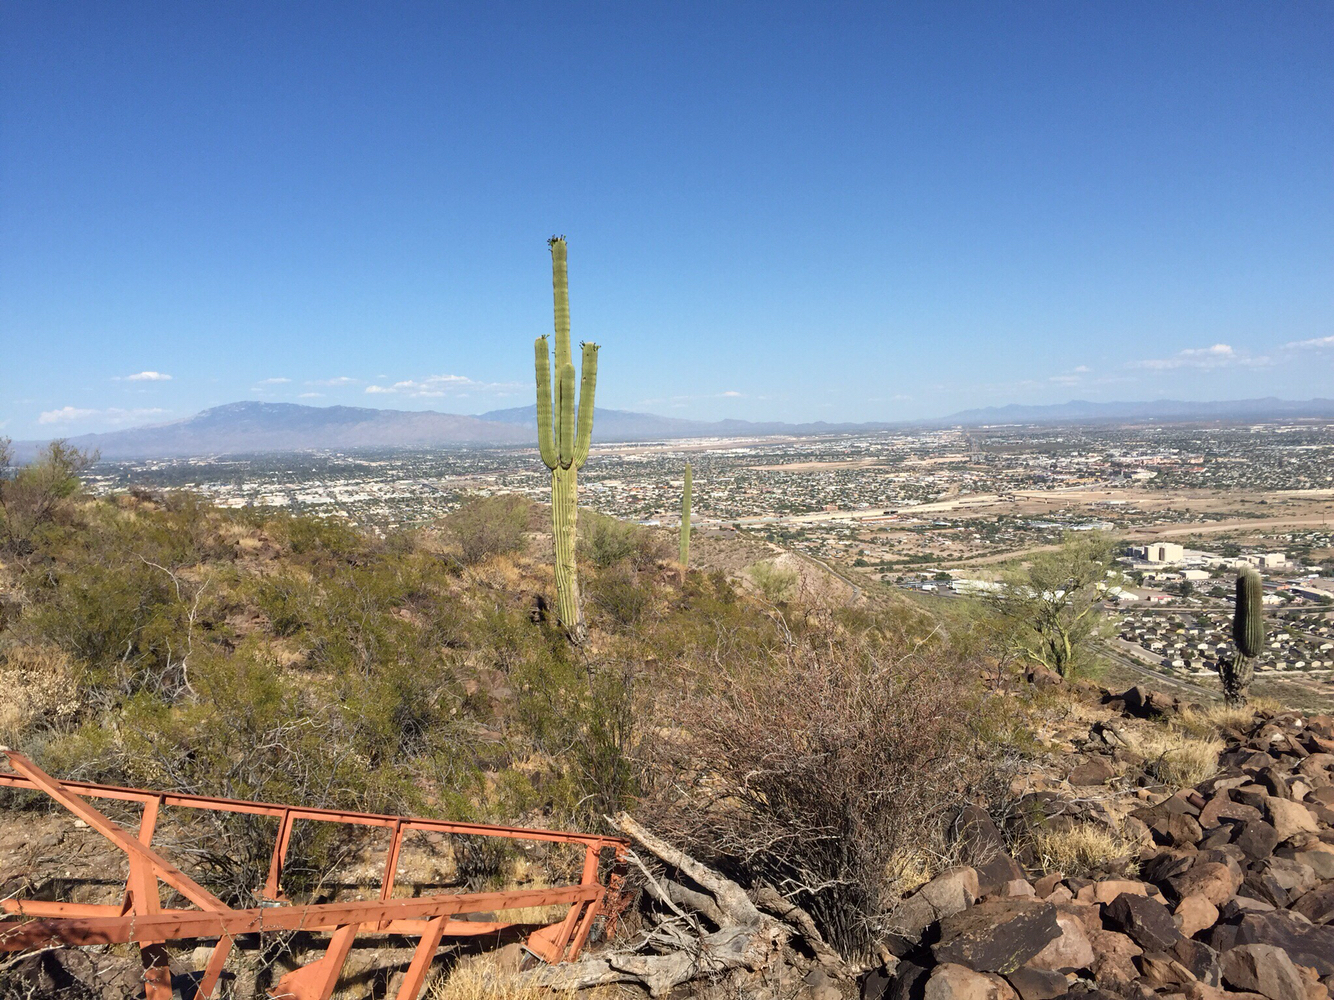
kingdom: Plantae
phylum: Tracheophyta
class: Magnoliopsida
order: Caryophyllales
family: Cactaceae
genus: Carnegiea
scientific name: Carnegiea gigantea
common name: Saguaro
